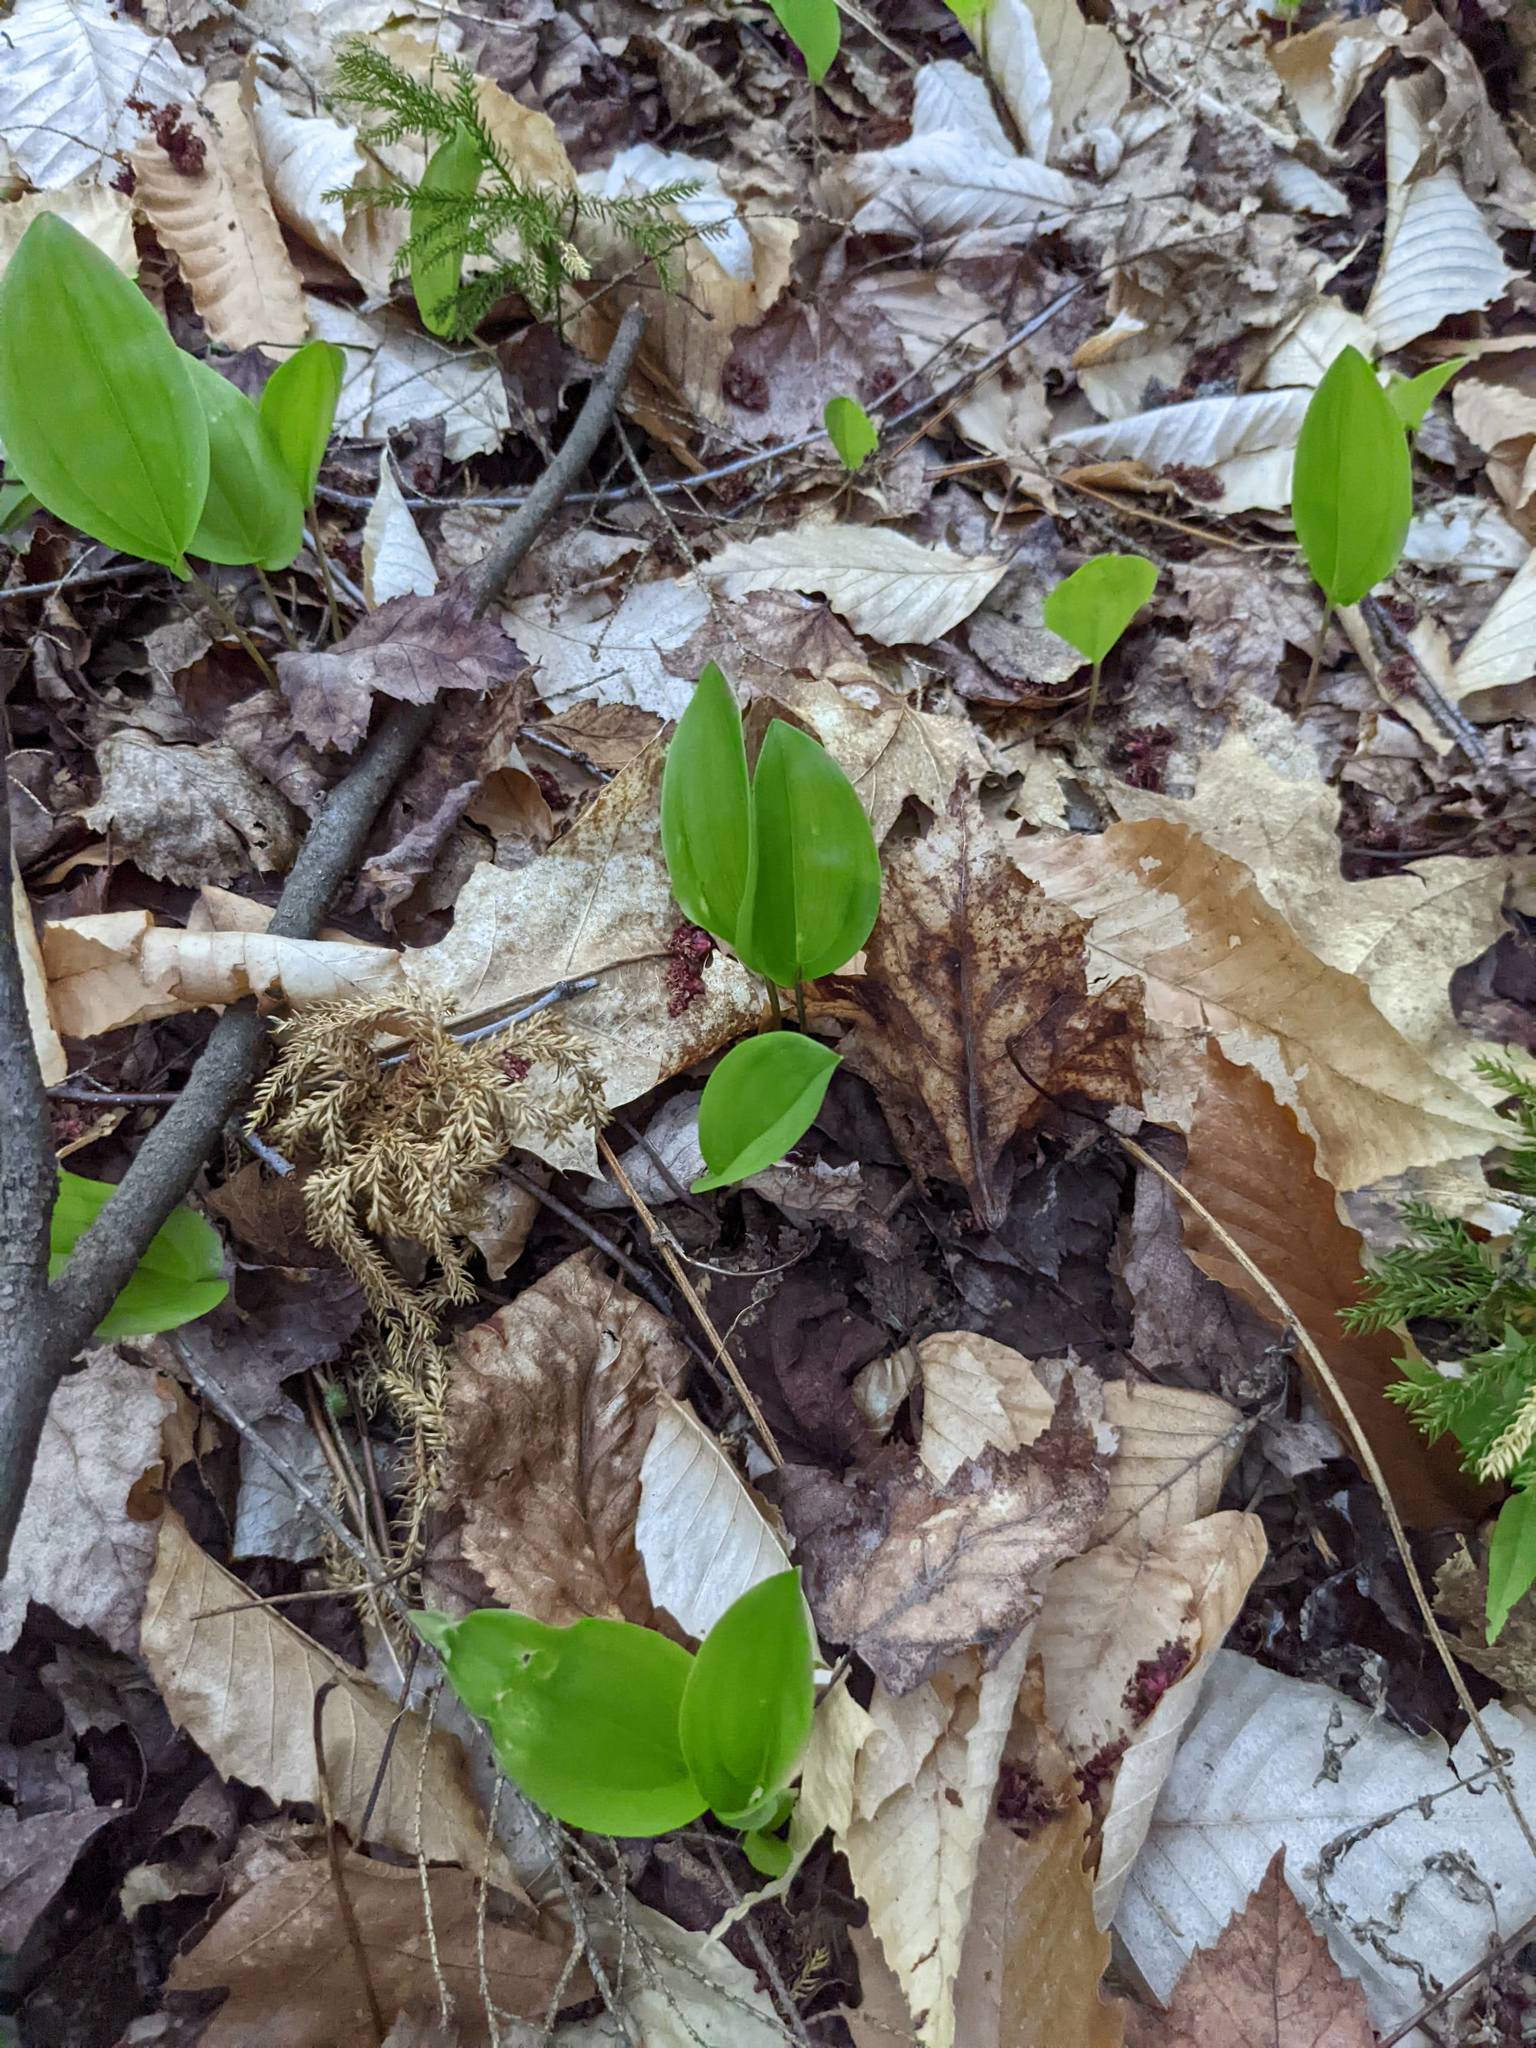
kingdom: Plantae
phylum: Tracheophyta
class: Liliopsida
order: Asparagales
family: Asparagaceae
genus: Maianthemum
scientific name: Maianthemum canadense
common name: False lily-of-the-valley
